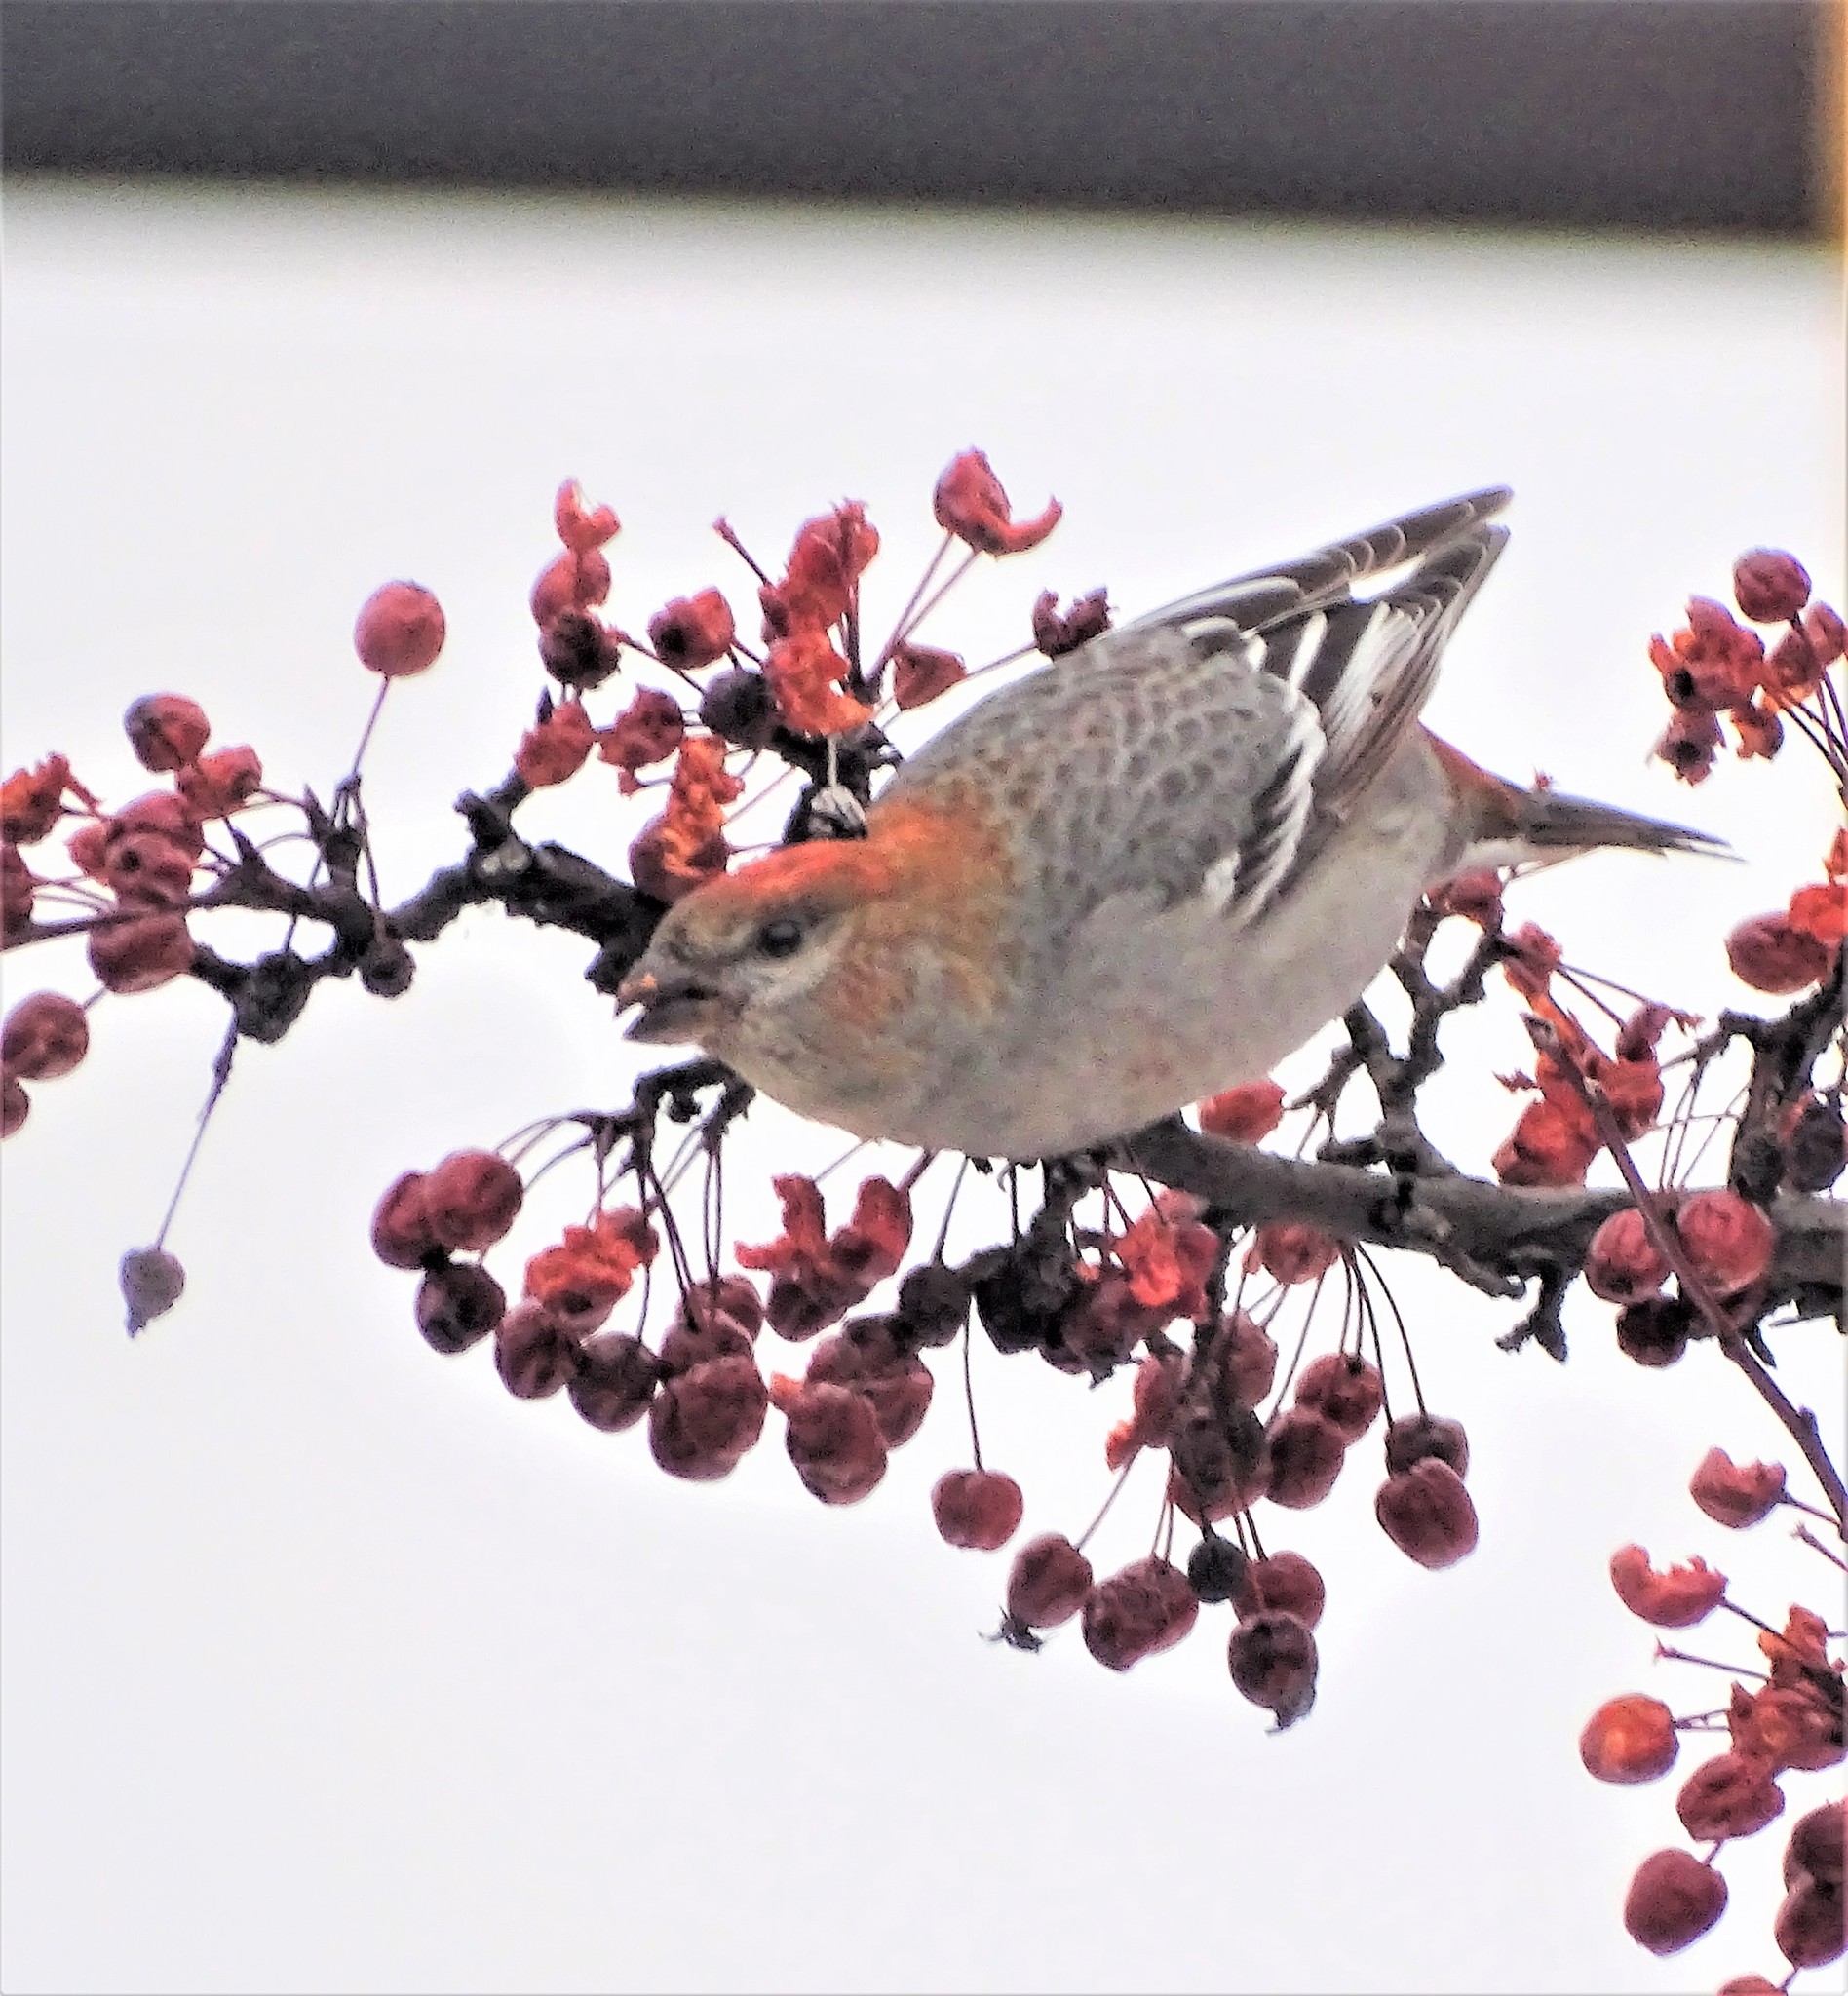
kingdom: Animalia
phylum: Chordata
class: Aves
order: Passeriformes
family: Fringillidae
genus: Pinicola
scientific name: Pinicola enucleator
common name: Pine grosbeak
